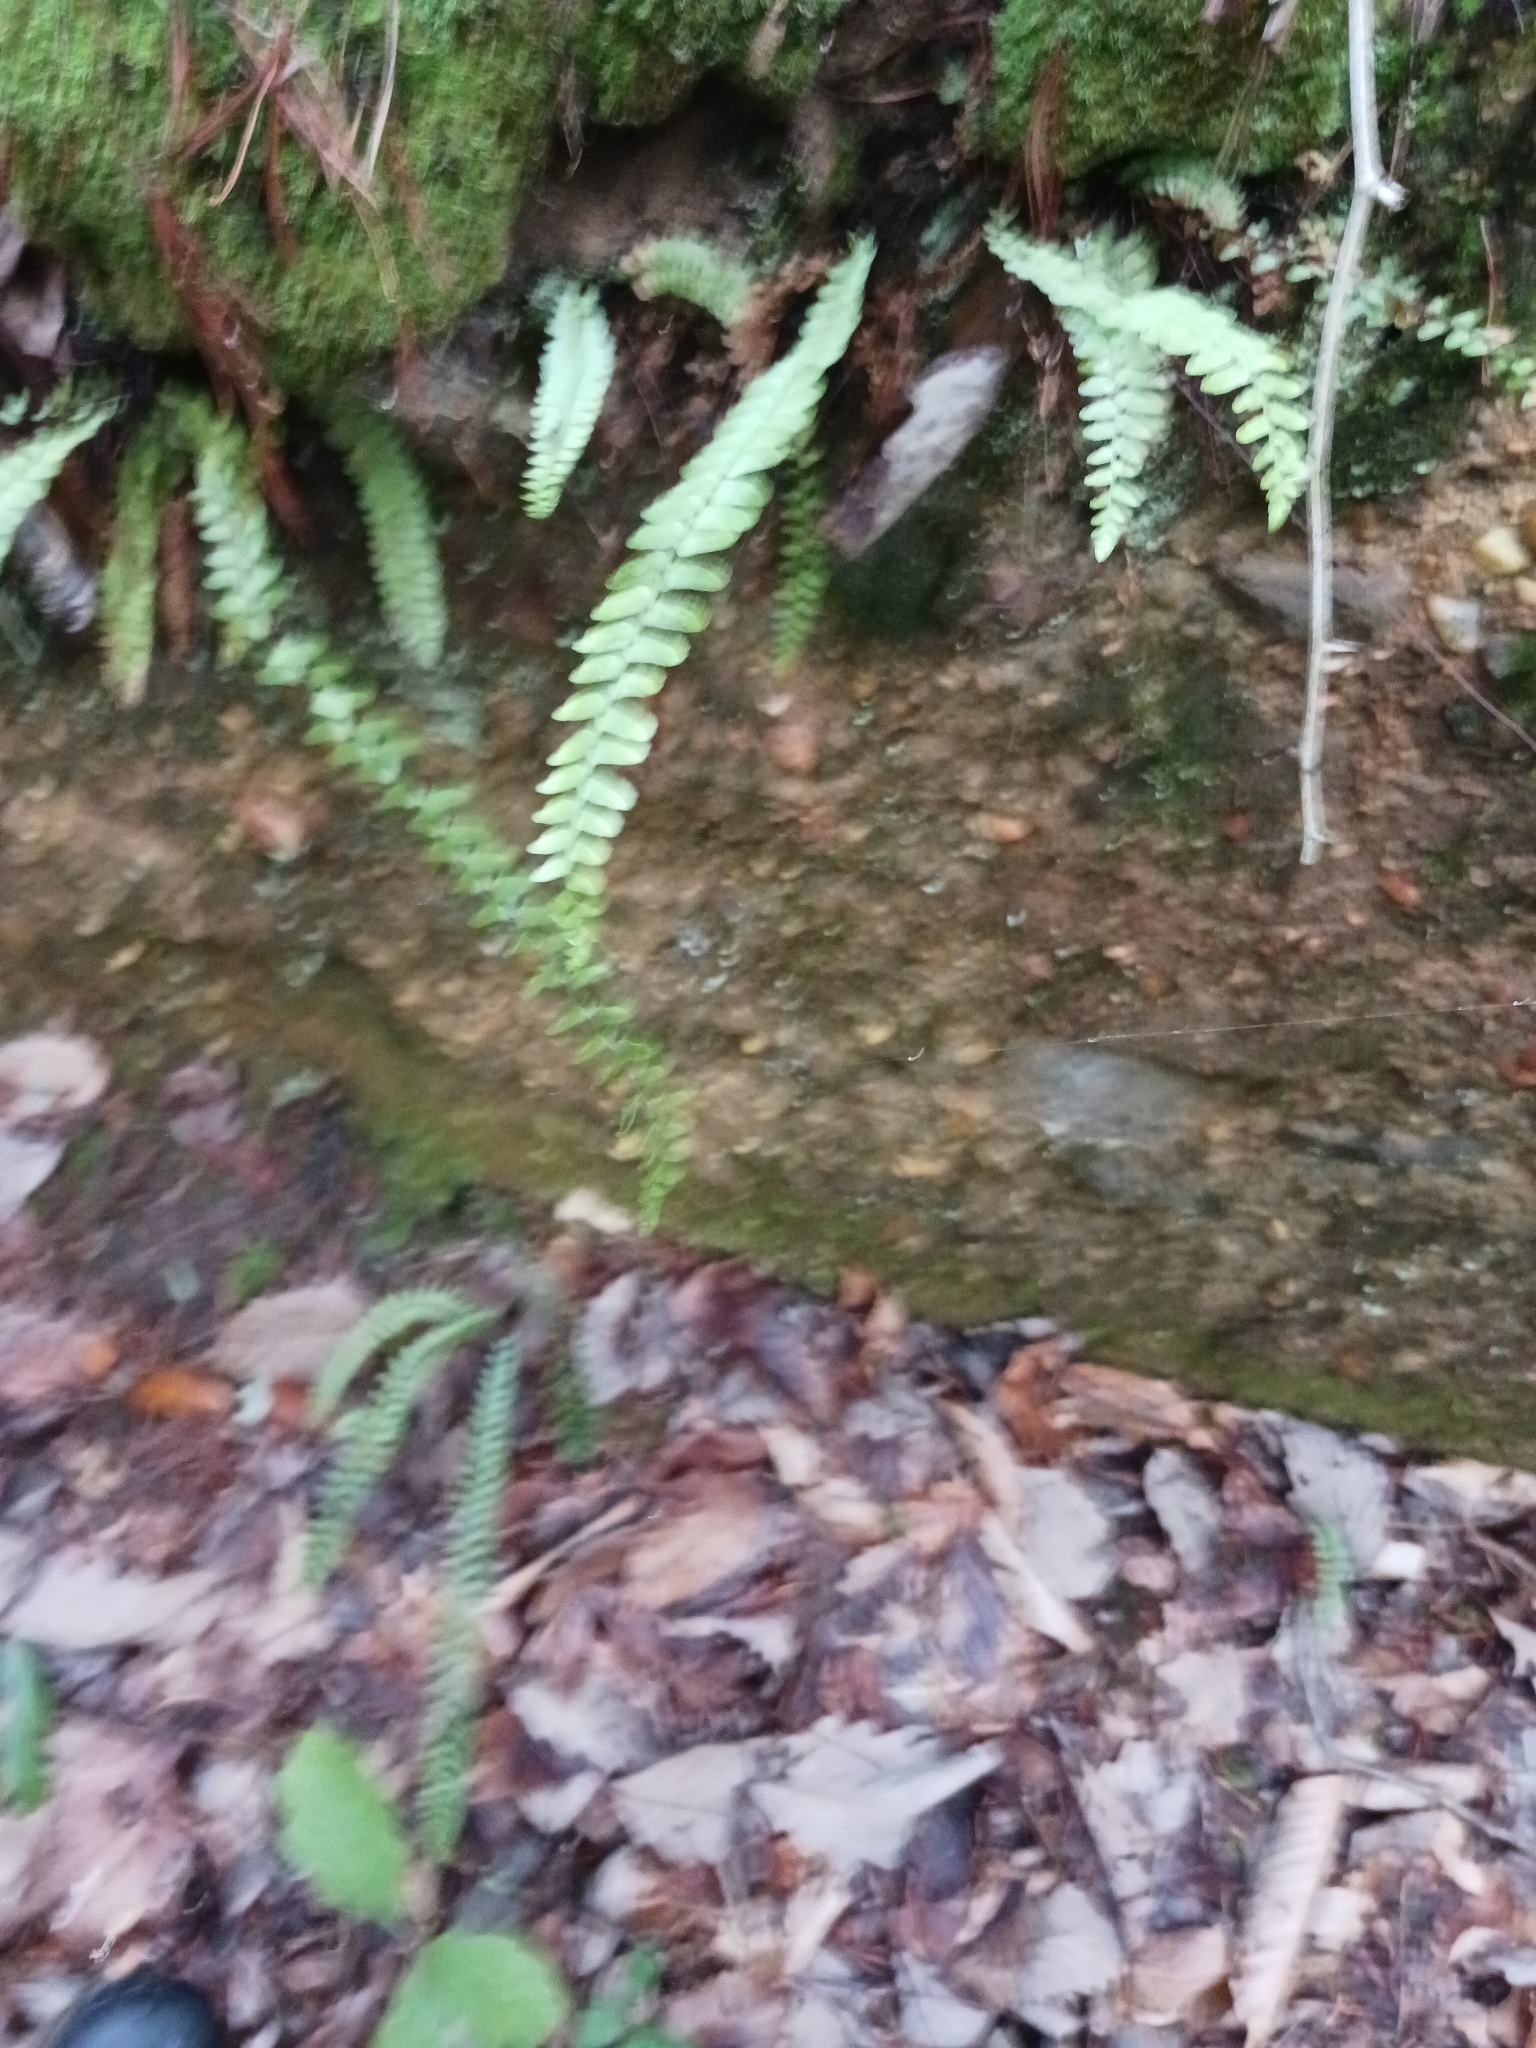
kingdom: Plantae
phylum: Tracheophyta
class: Polypodiopsida
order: Polypodiales
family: Aspleniaceae
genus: Asplenium
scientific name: Asplenium platyneuron
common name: Ebony spleenwort
